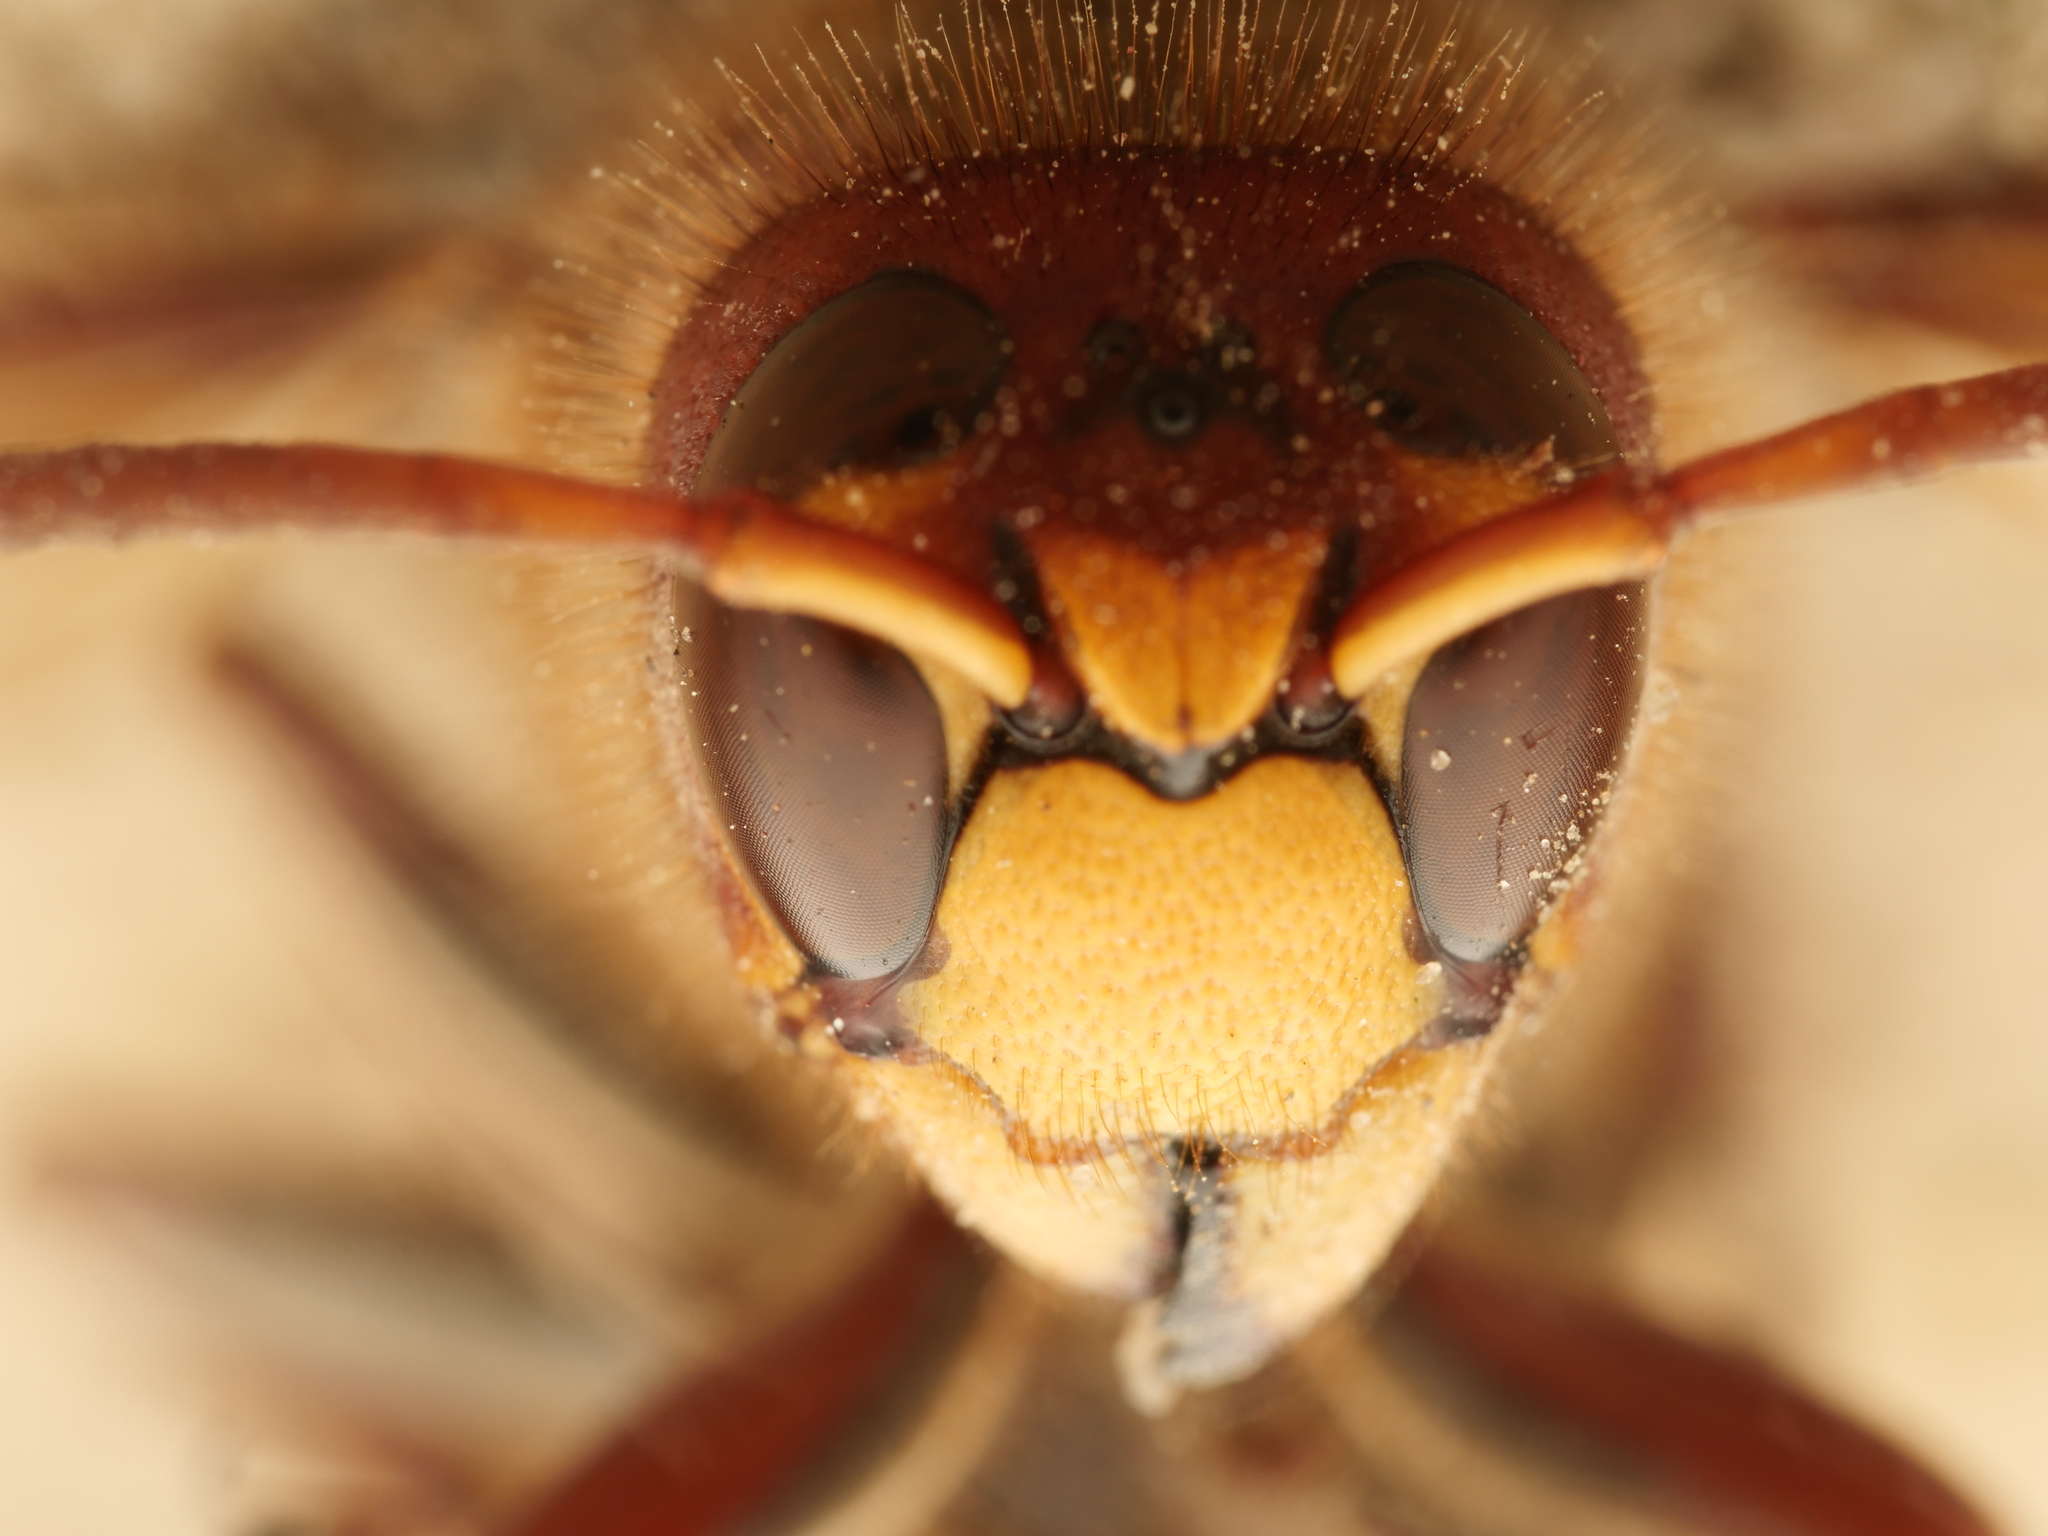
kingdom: Animalia
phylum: Arthropoda
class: Insecta
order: Hymenoptera
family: Vespidae
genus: Vespa
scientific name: Vespa crabro
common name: Hornet
